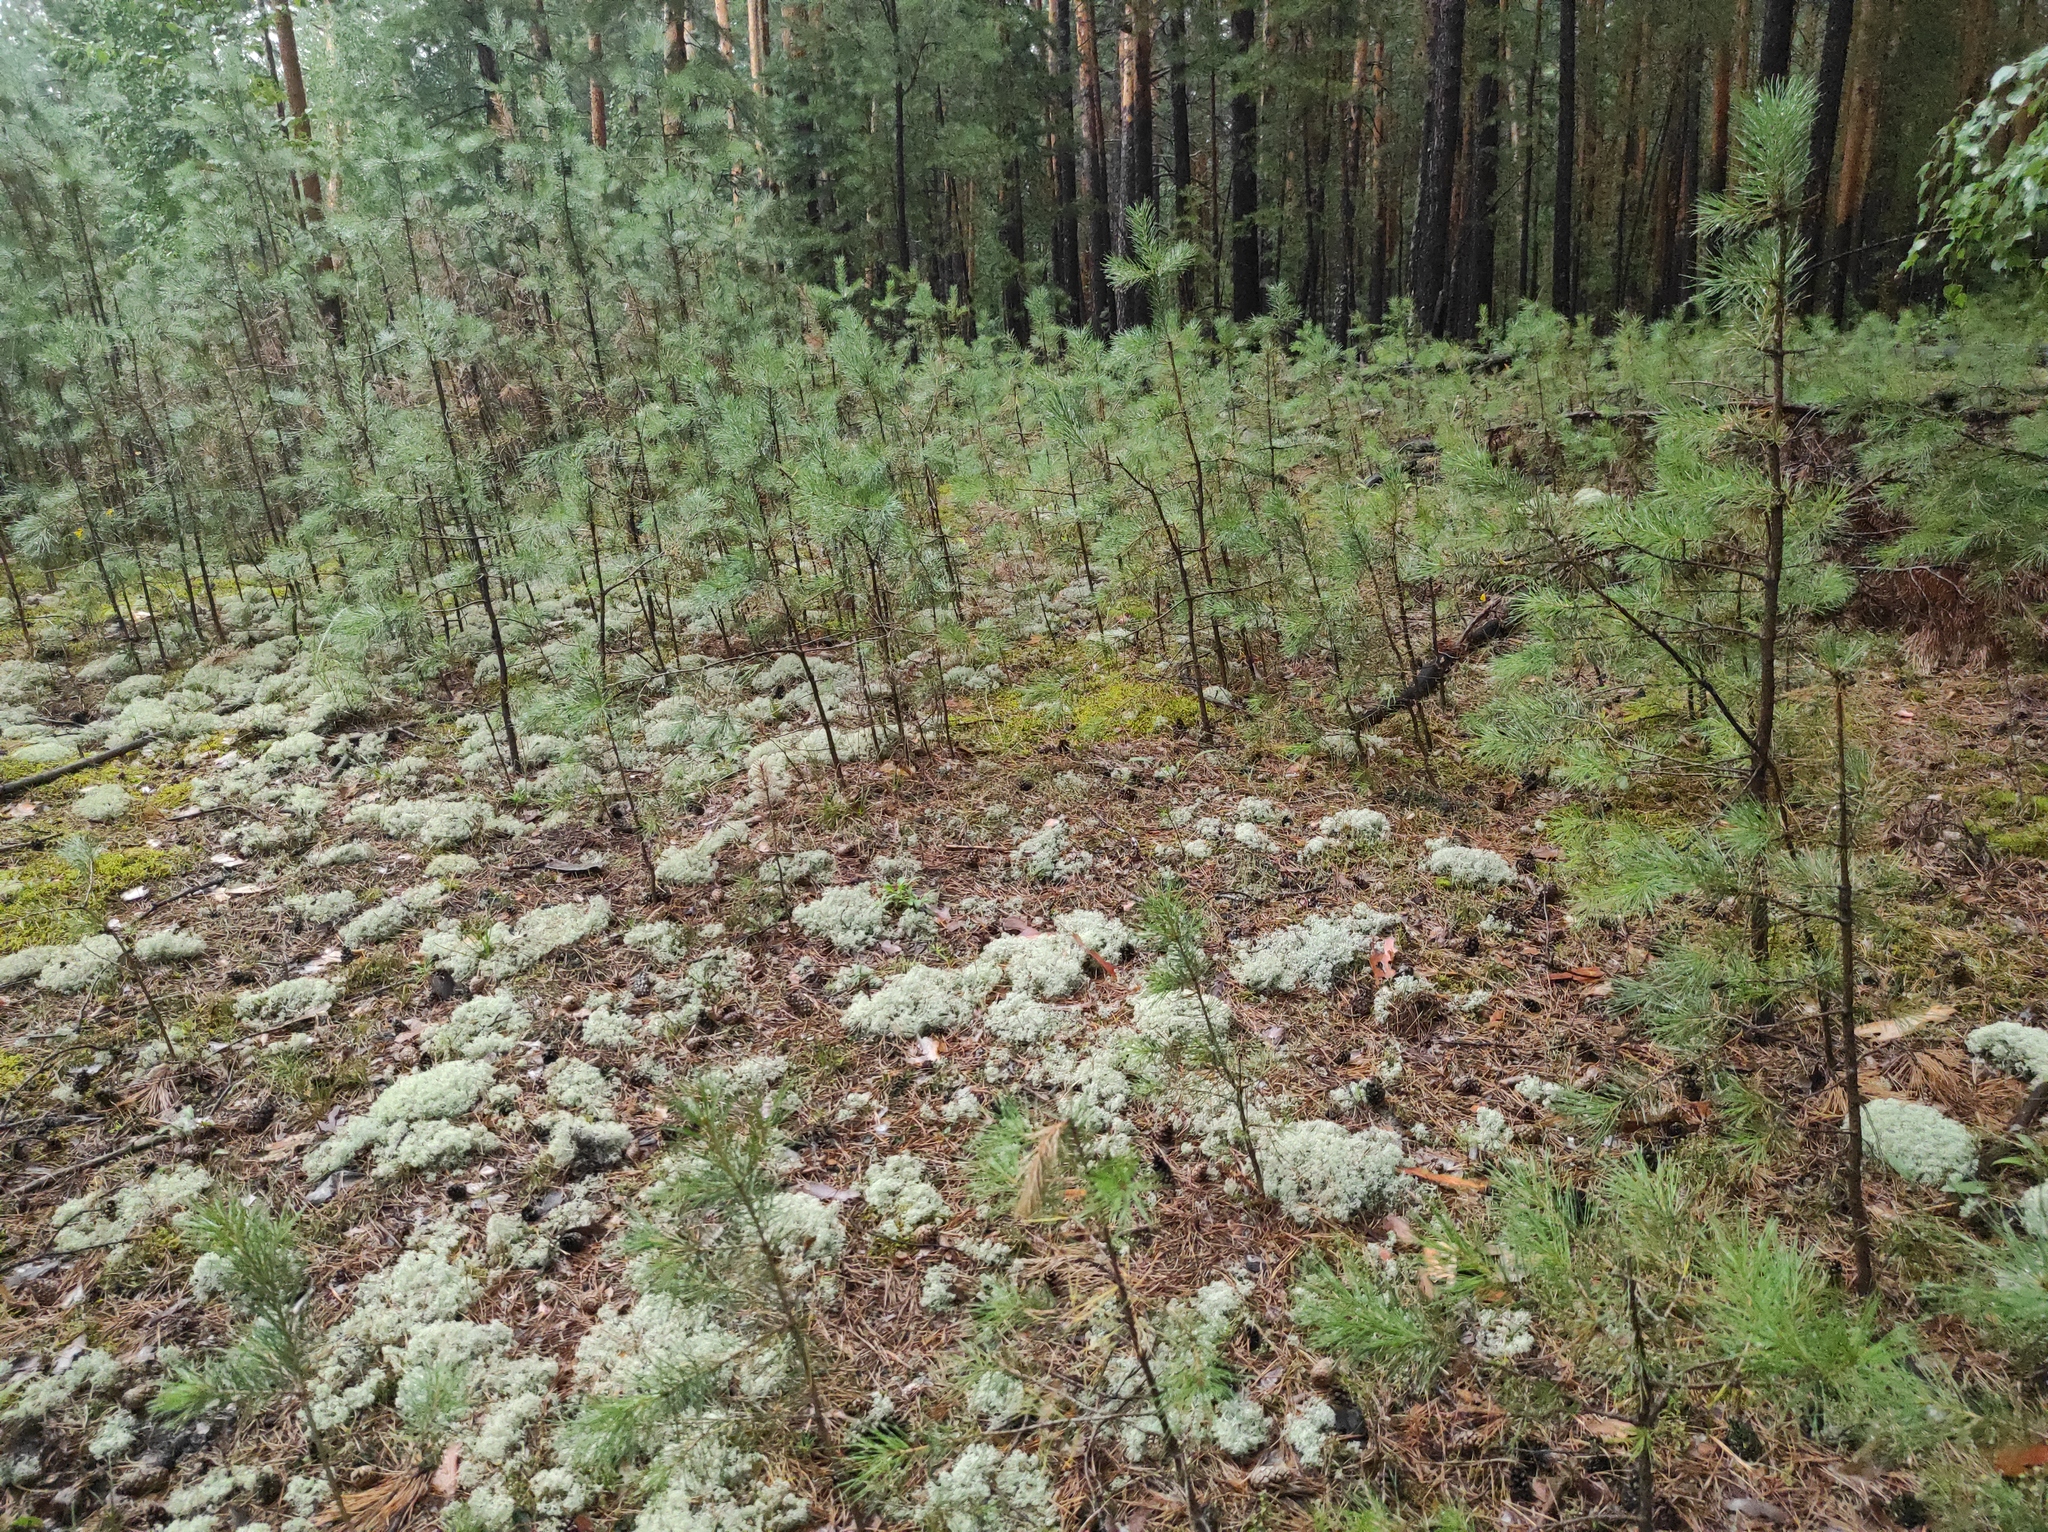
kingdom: Plantae
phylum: Tracheophyta
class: Pinopsida
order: Pinales
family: Pinaceae
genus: Pinus
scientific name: Pinus sylvestris
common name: Scots pine
